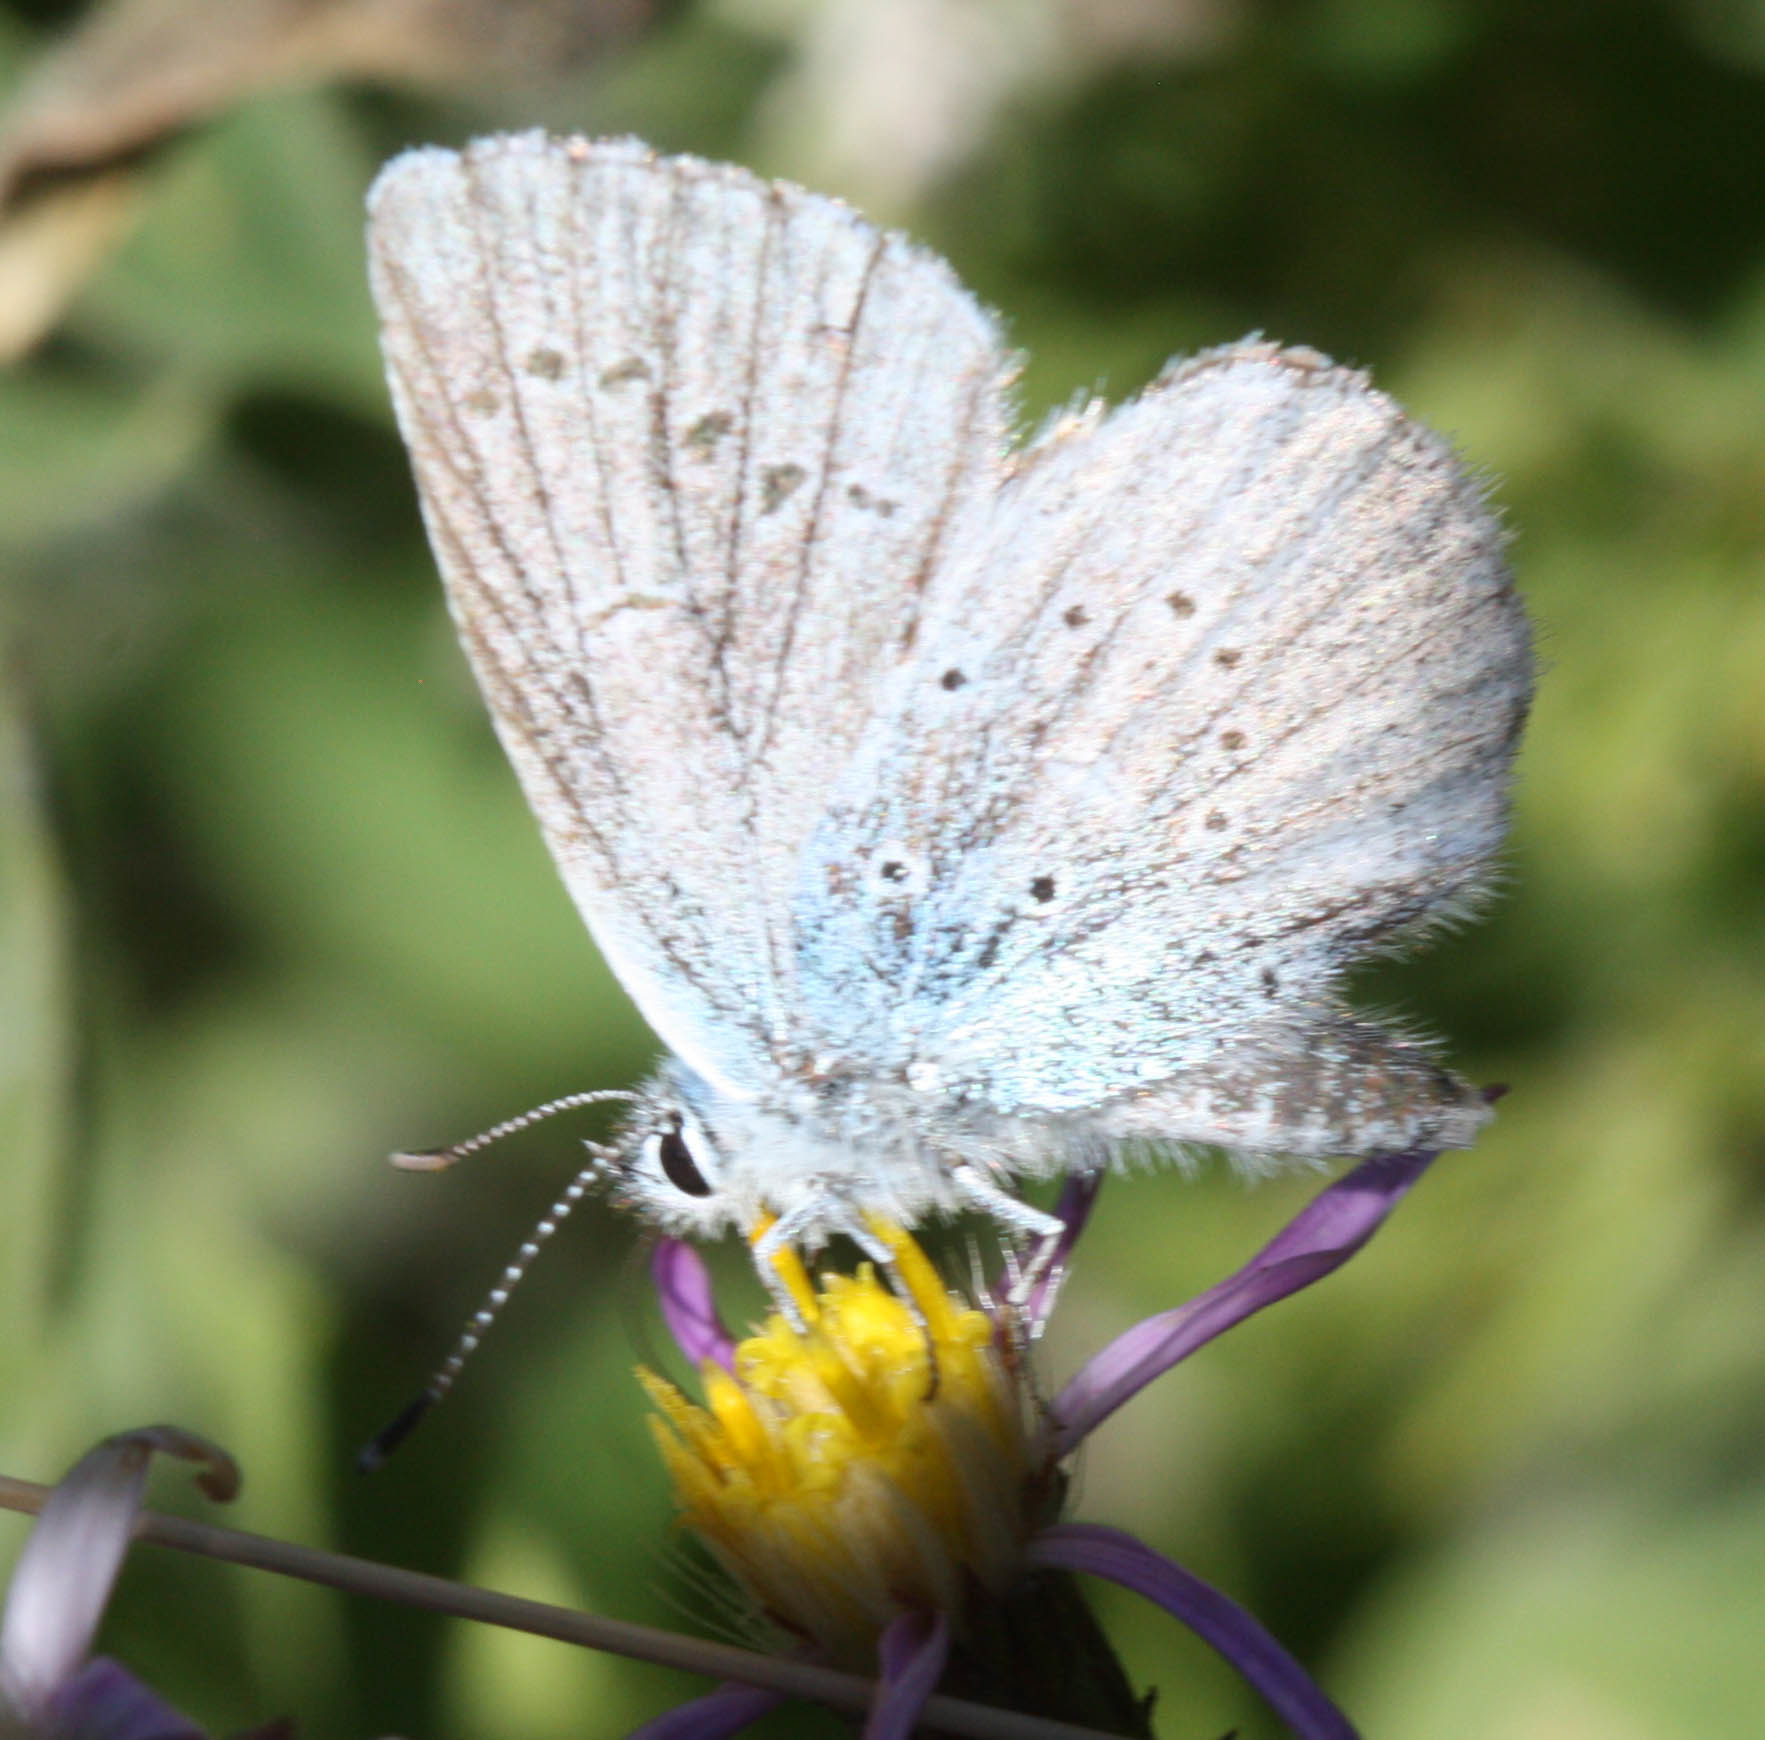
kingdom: Animalia
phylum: Arthropoda
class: Insecta
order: Lepidoptera
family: Lycaenidae
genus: Icaricia
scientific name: Icaricia icarioides
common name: Boisduval's blue
